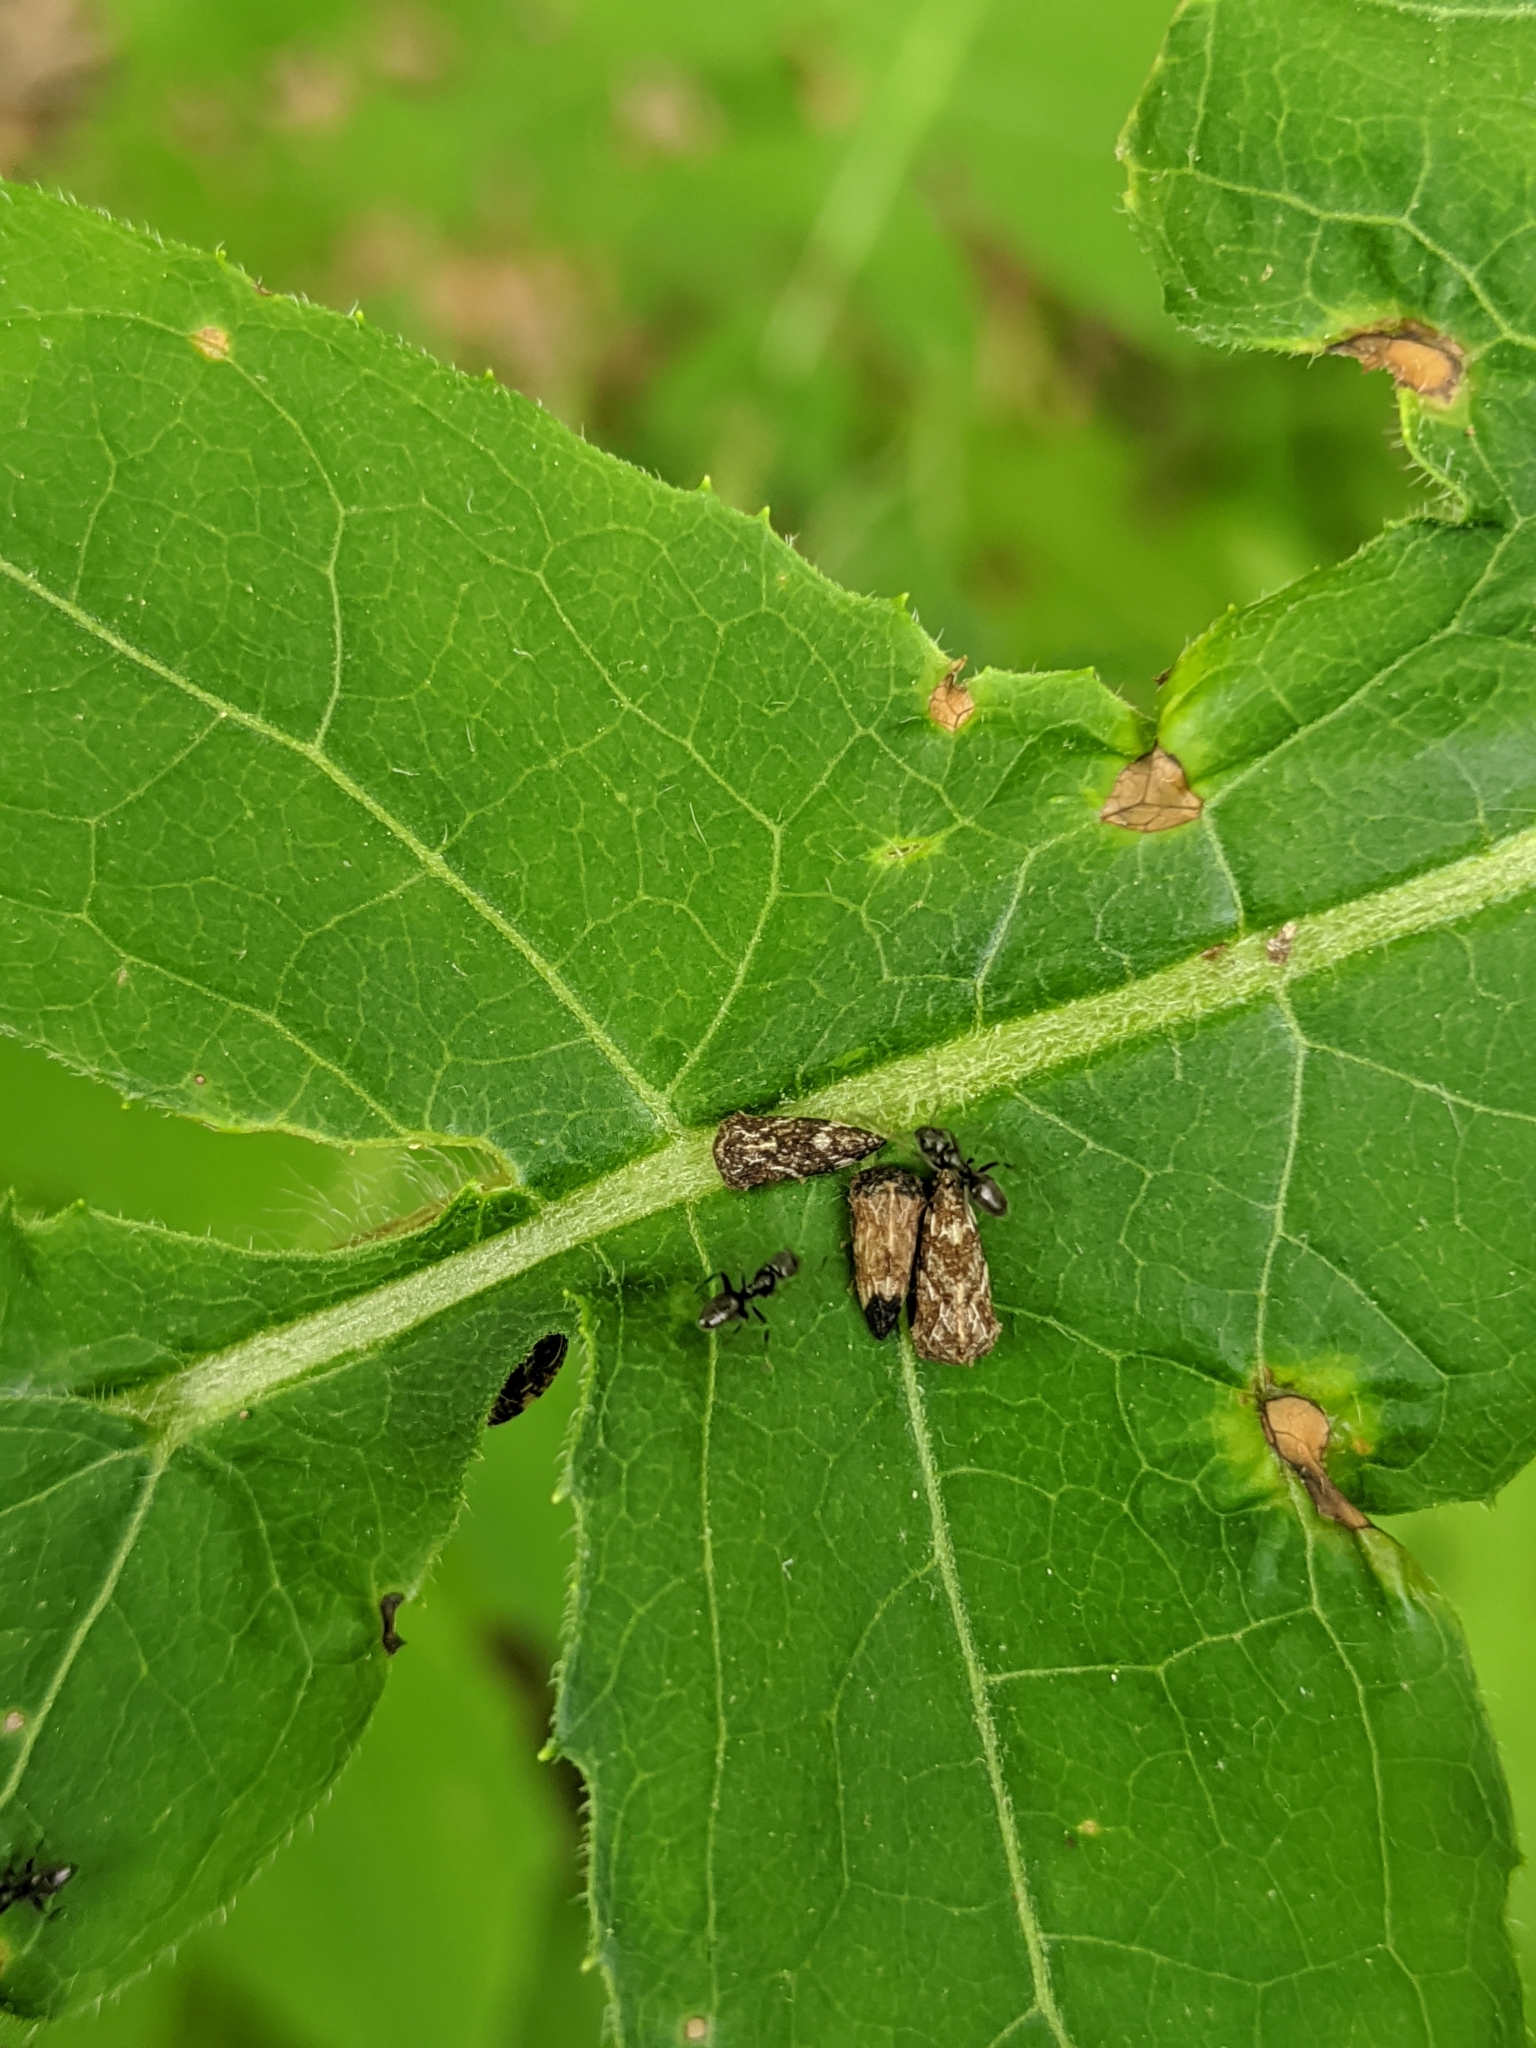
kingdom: Animalia
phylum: Arthropoda
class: Insecta
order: Hemiptera
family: Membracidae
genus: Publilia
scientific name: Publilia concava
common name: Aster treehopper
